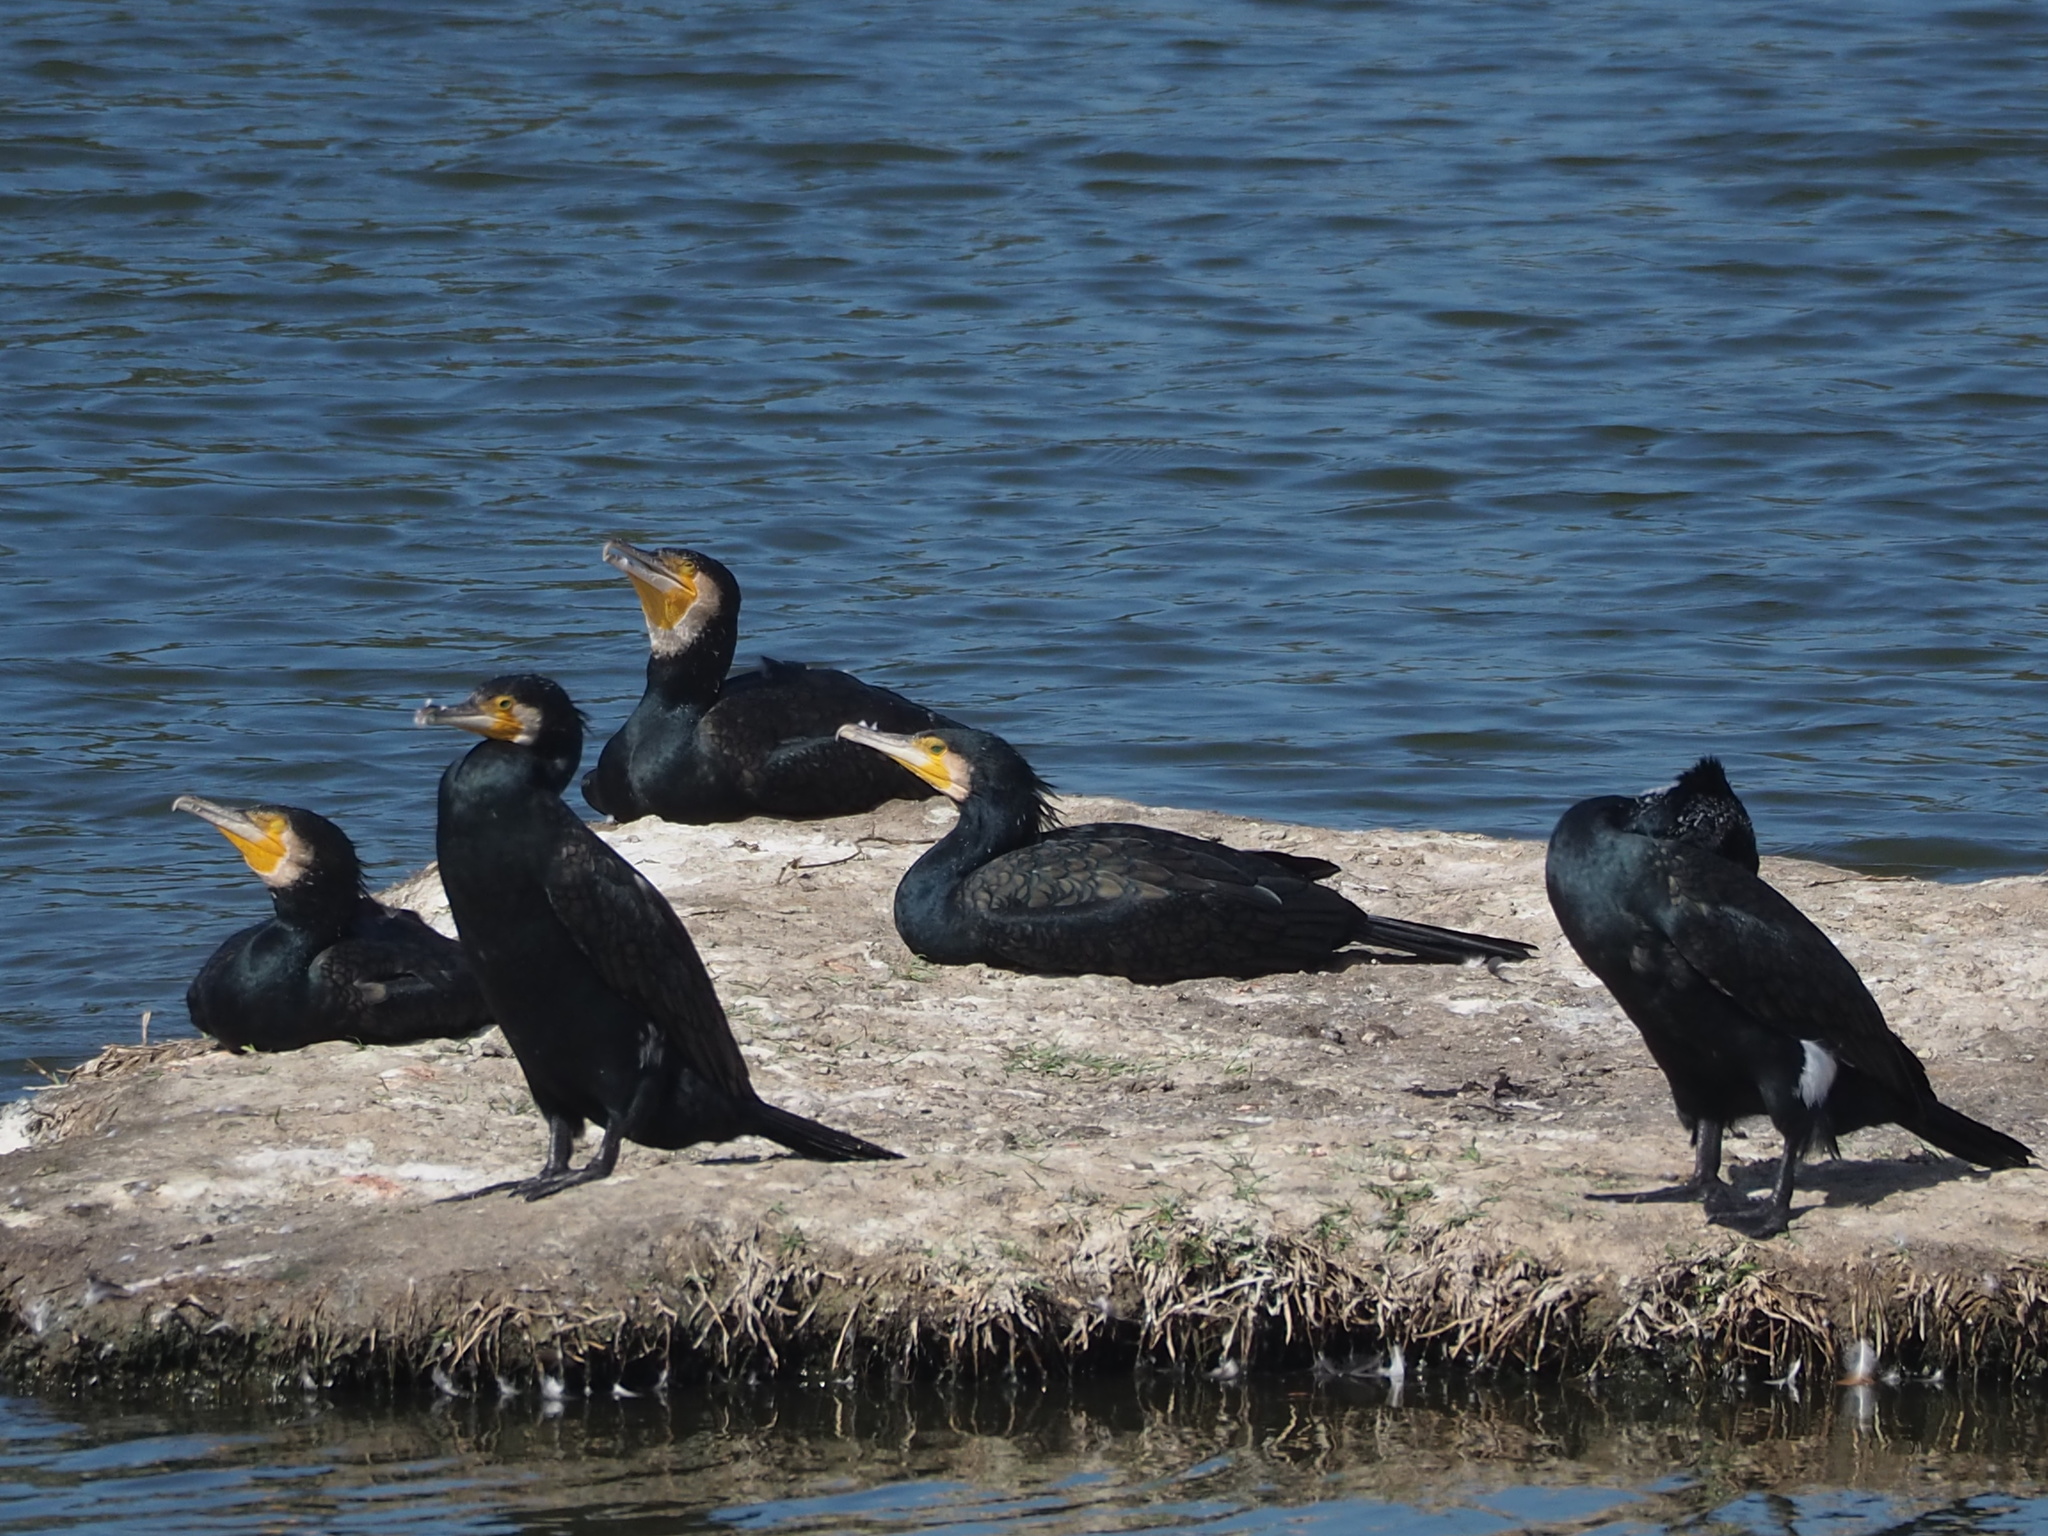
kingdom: Animalia
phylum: Chordata
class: Aves
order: Suliformes
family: Phalacrocoracidae
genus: Phalacrocorax
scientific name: Phalacrocorax carbo
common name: Great cormorant
